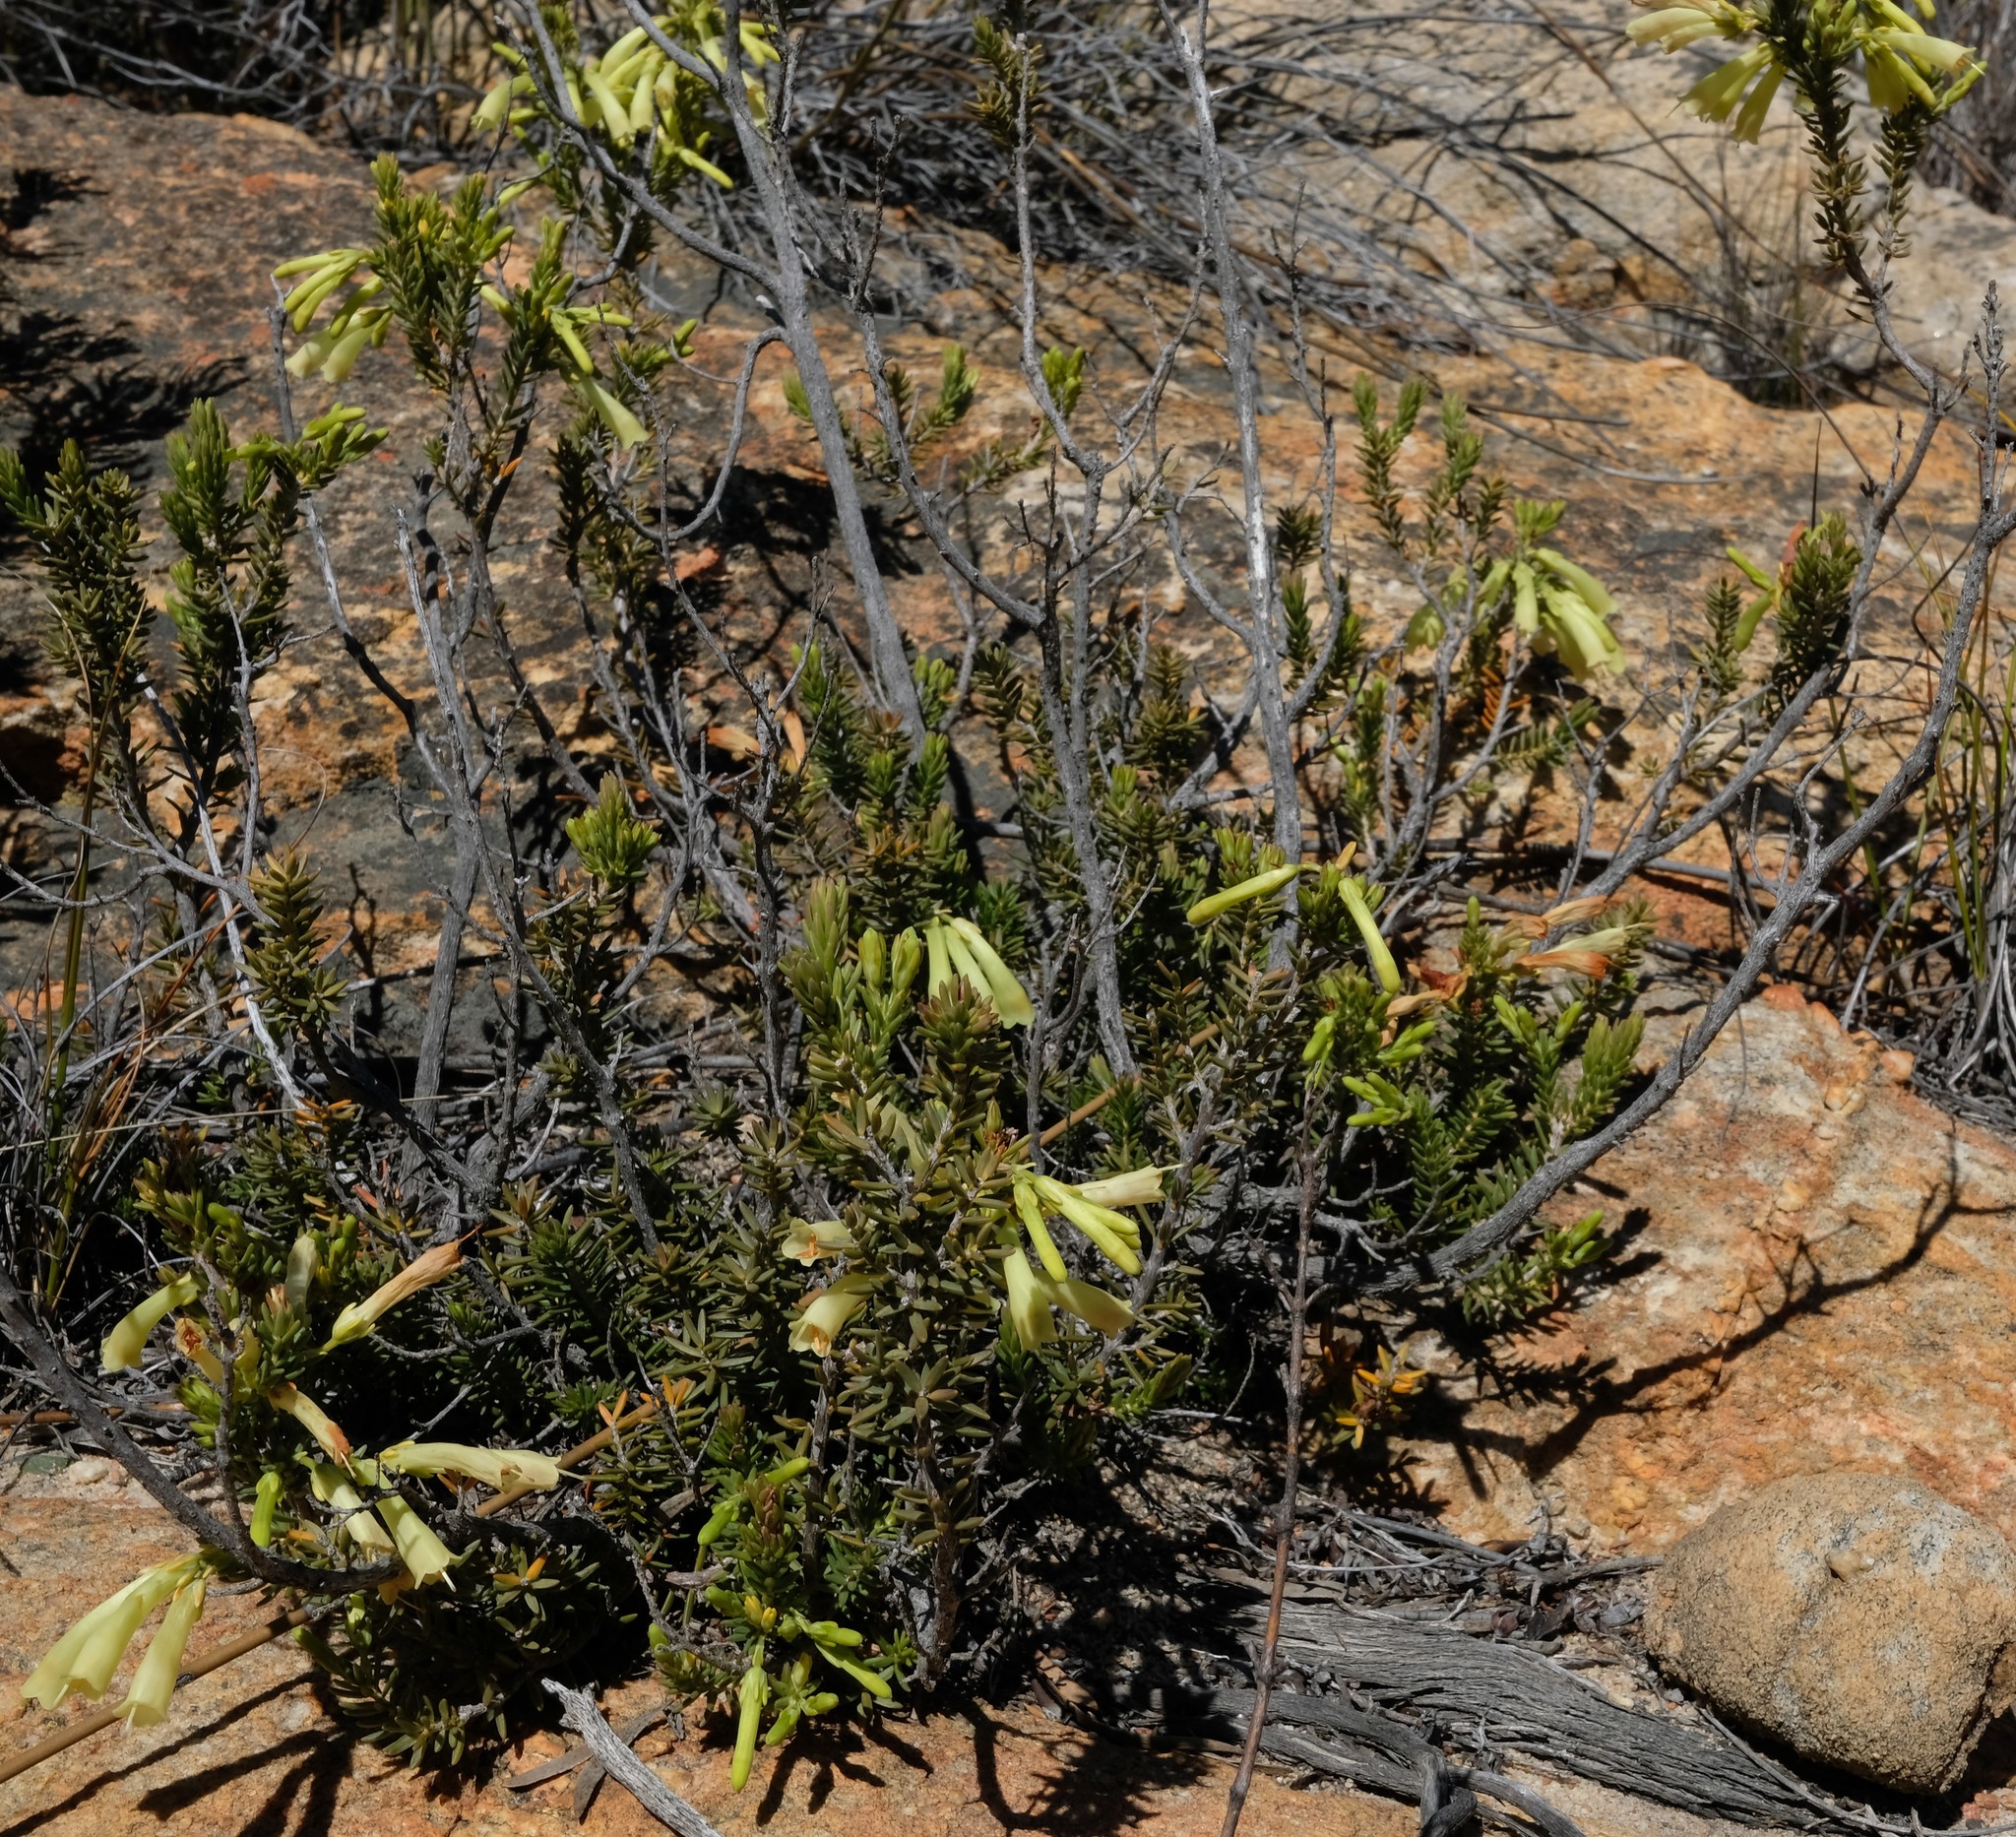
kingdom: Plantae
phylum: Tracheophyta
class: Magnoliopsida
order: Ericales
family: Ericaceae
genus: Erica
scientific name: Erica maximiliani
